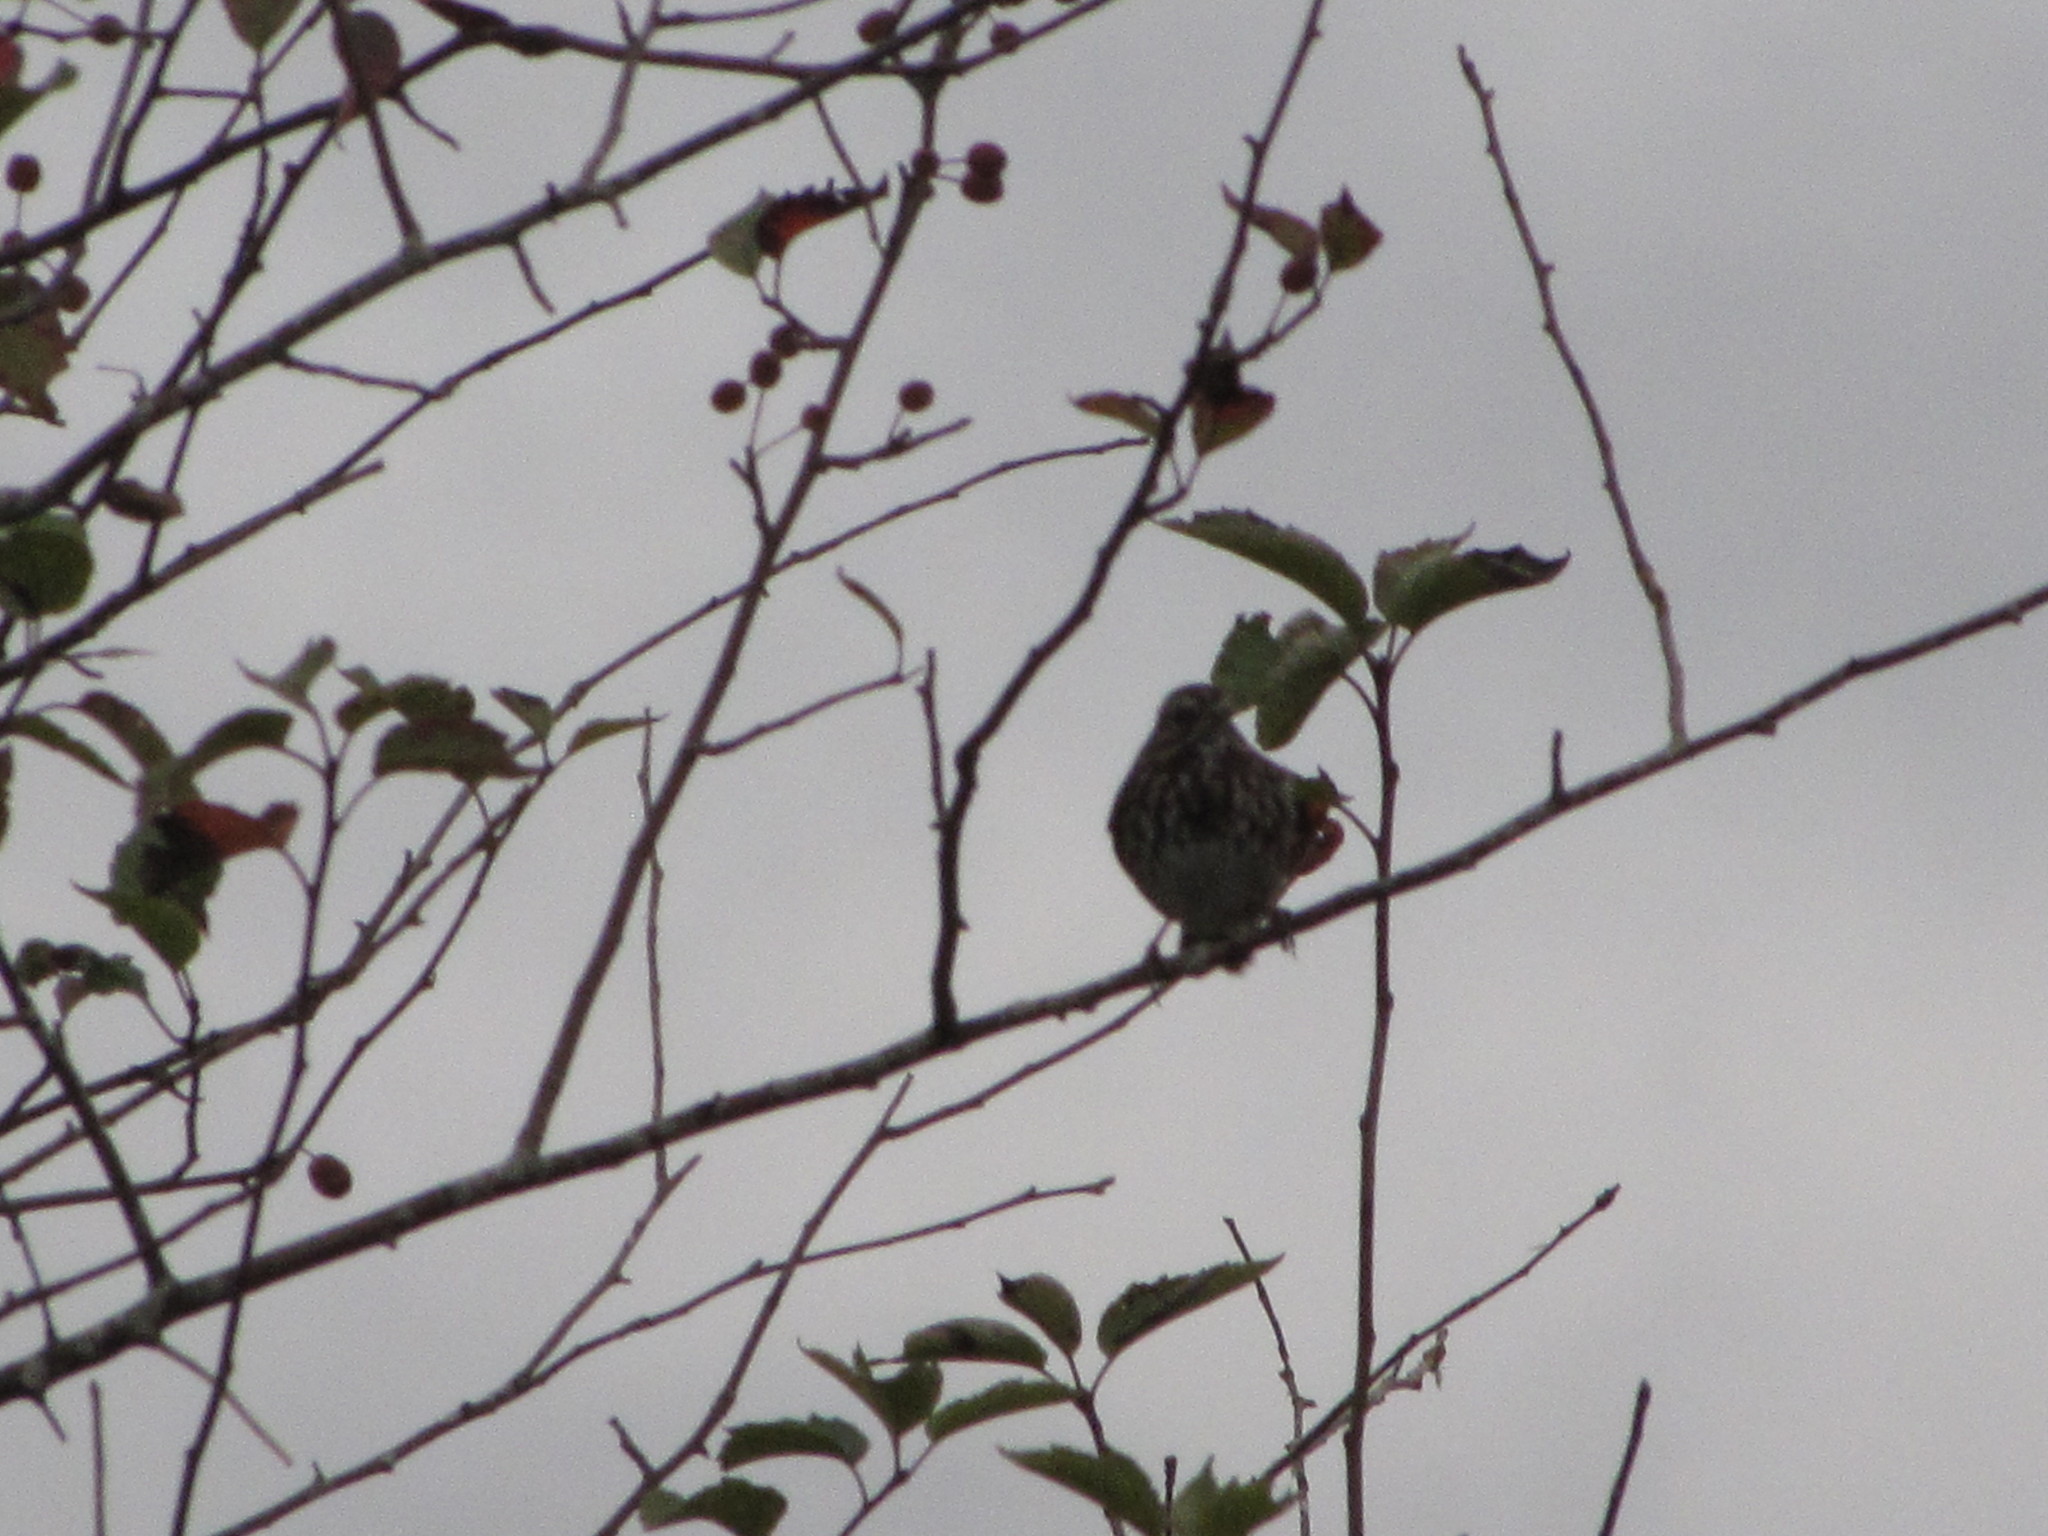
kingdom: Animalia
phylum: Chordata
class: Aves
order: Passeriformes
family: Passerellidae
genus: Melospiza
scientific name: Melospiza melodia
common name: Song sparrow
